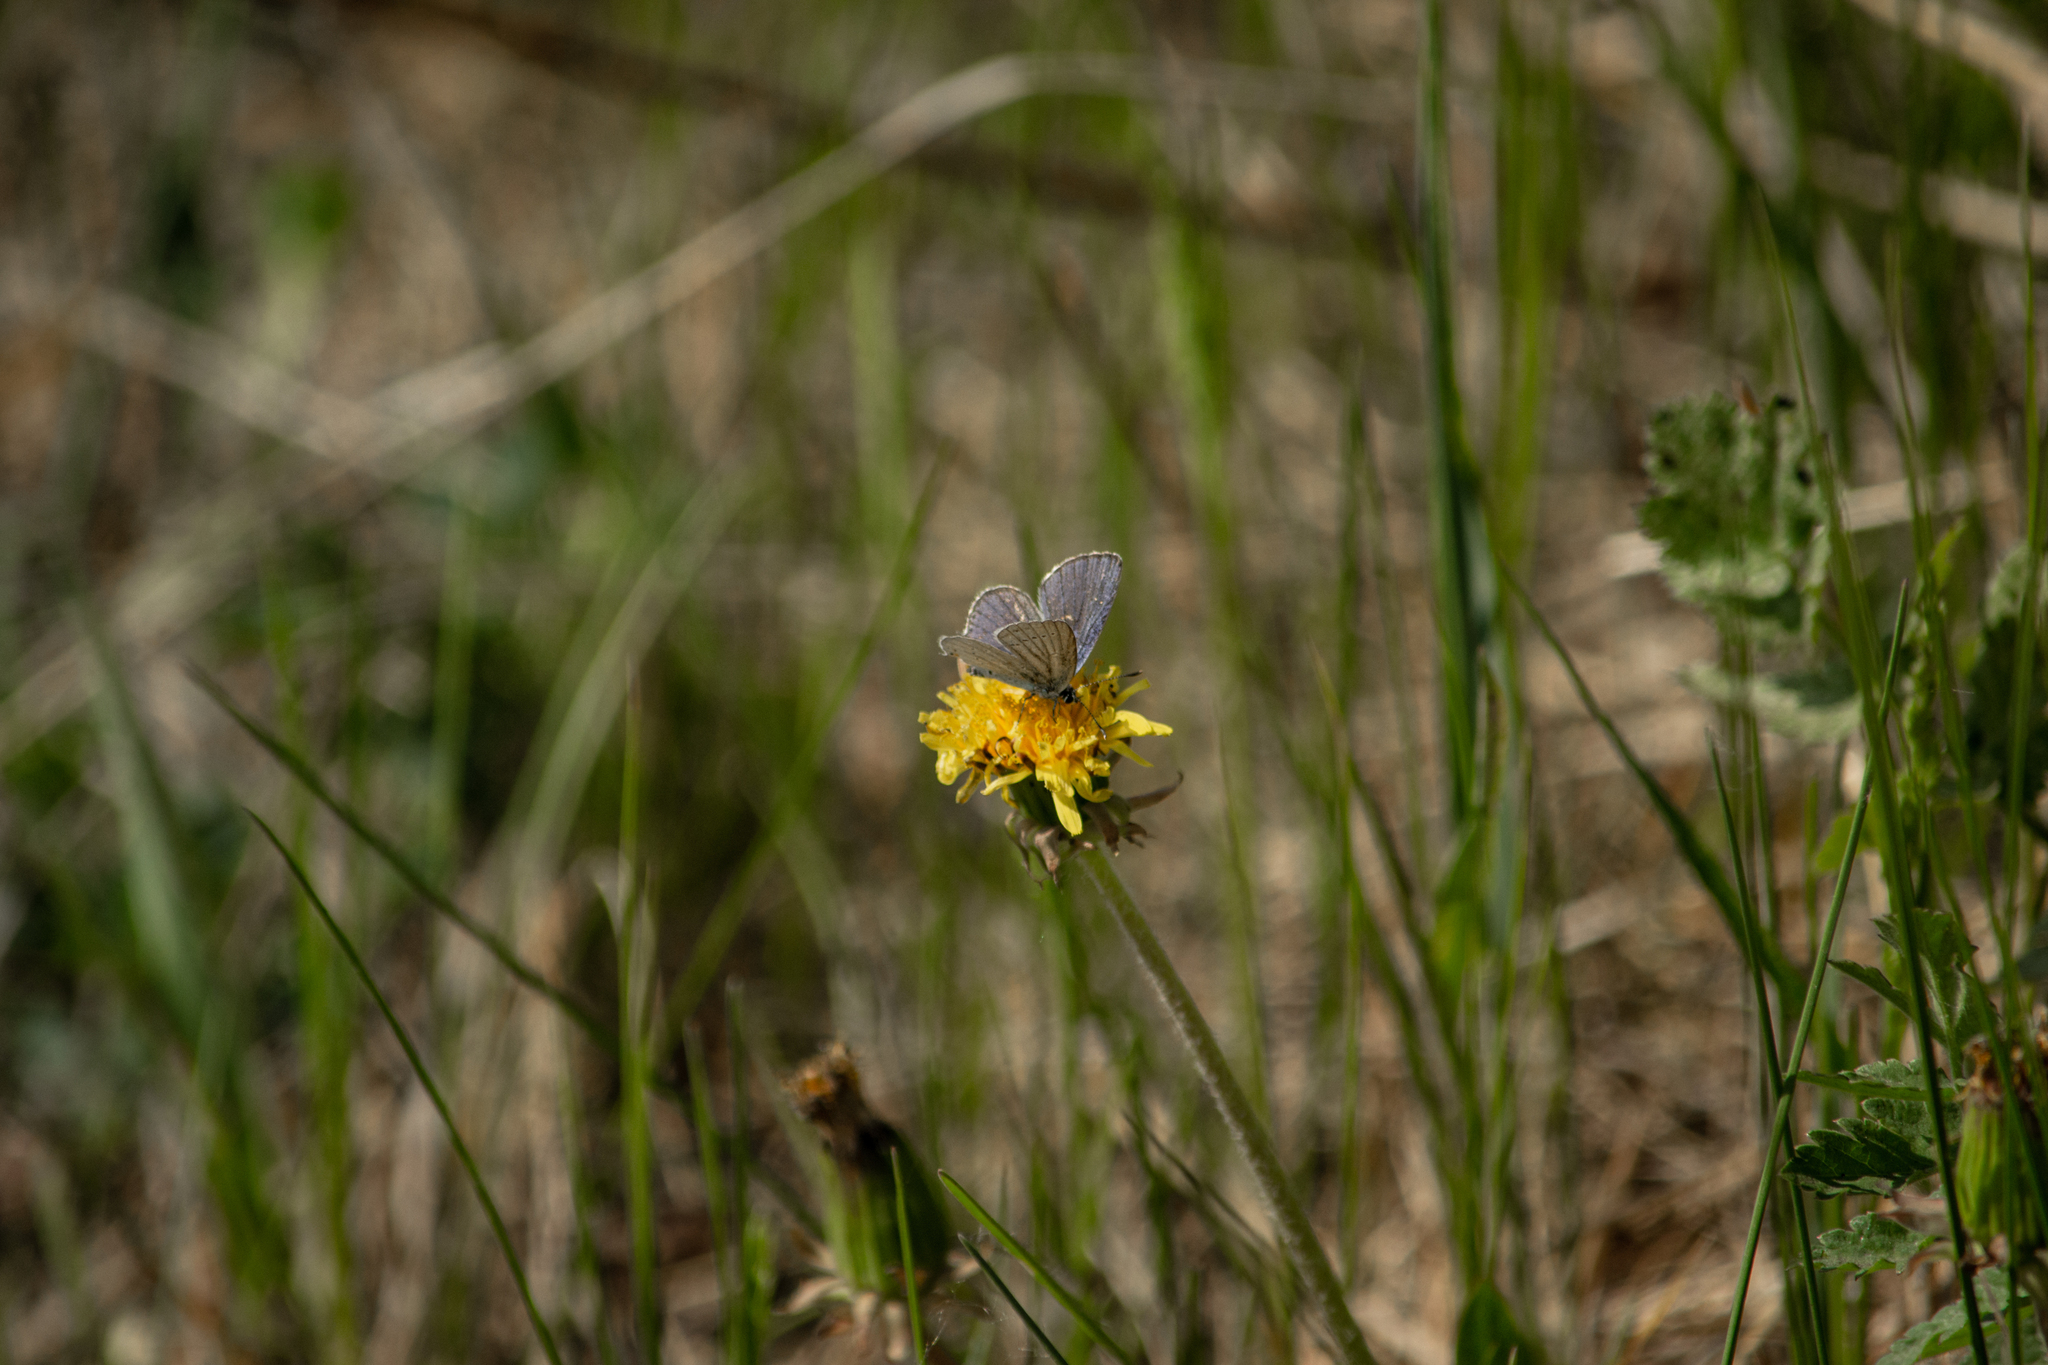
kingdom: Animalia
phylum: Arthropoda
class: Insecta
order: Lepidoptera
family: Lycaenidae
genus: Elkalyce
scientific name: Elkalyce argiades
